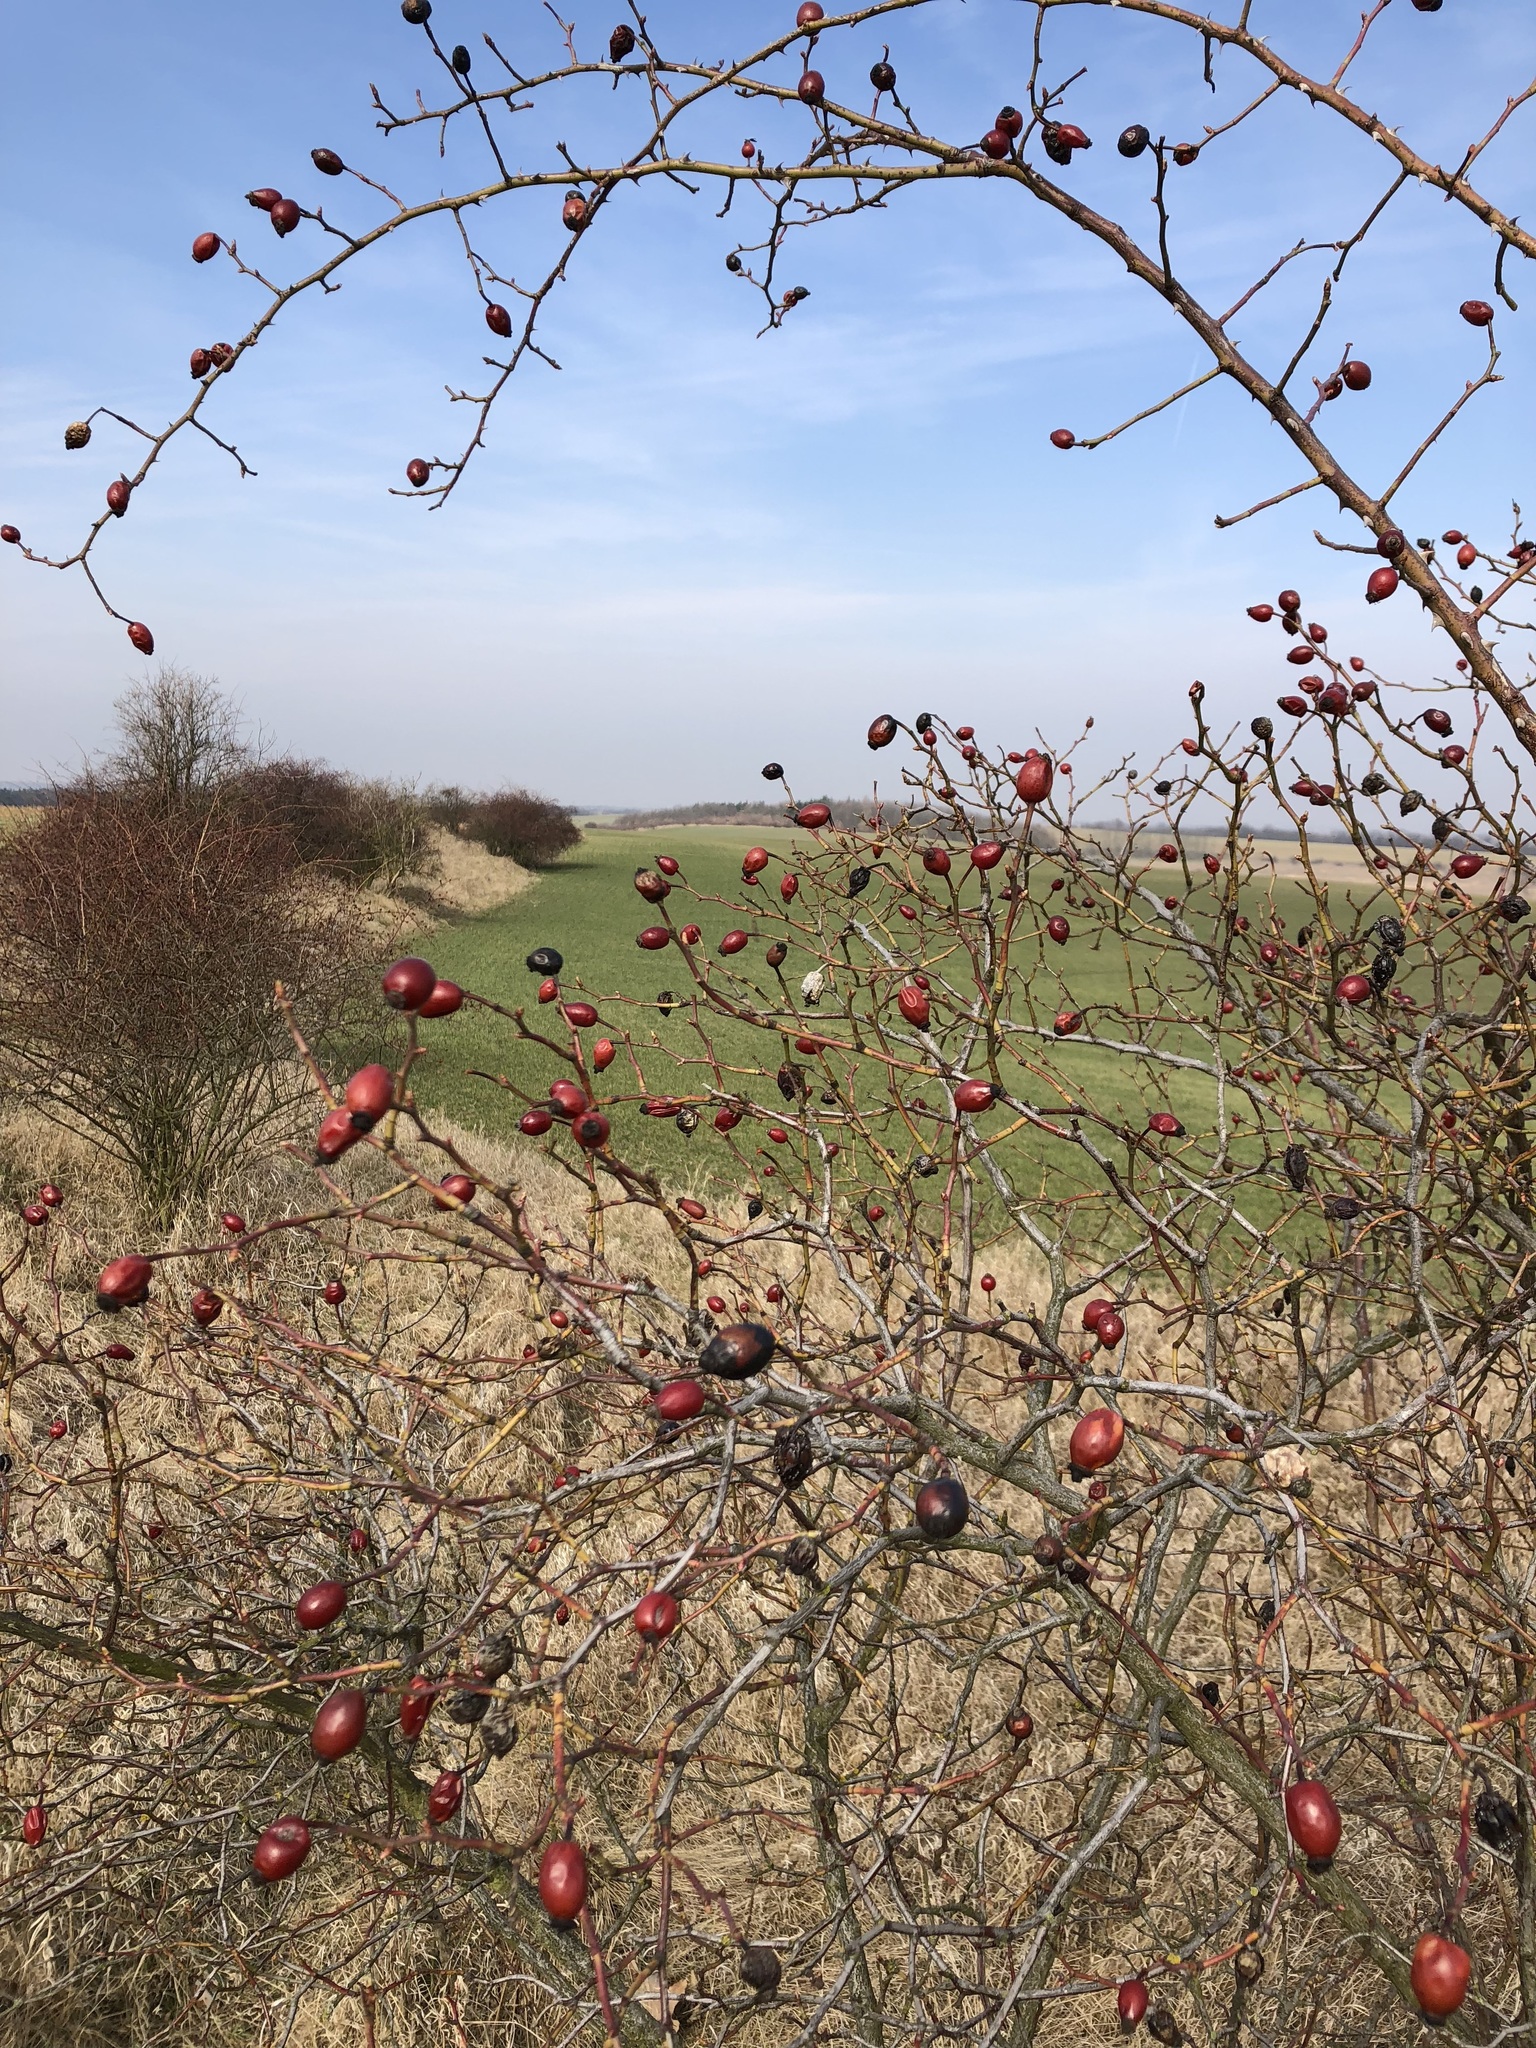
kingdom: Plantae
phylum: Tracheophyta
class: Magnoliopsida
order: Rosales
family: Rosaceae
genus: Rosa
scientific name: Rosa canina
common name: Dog rose
